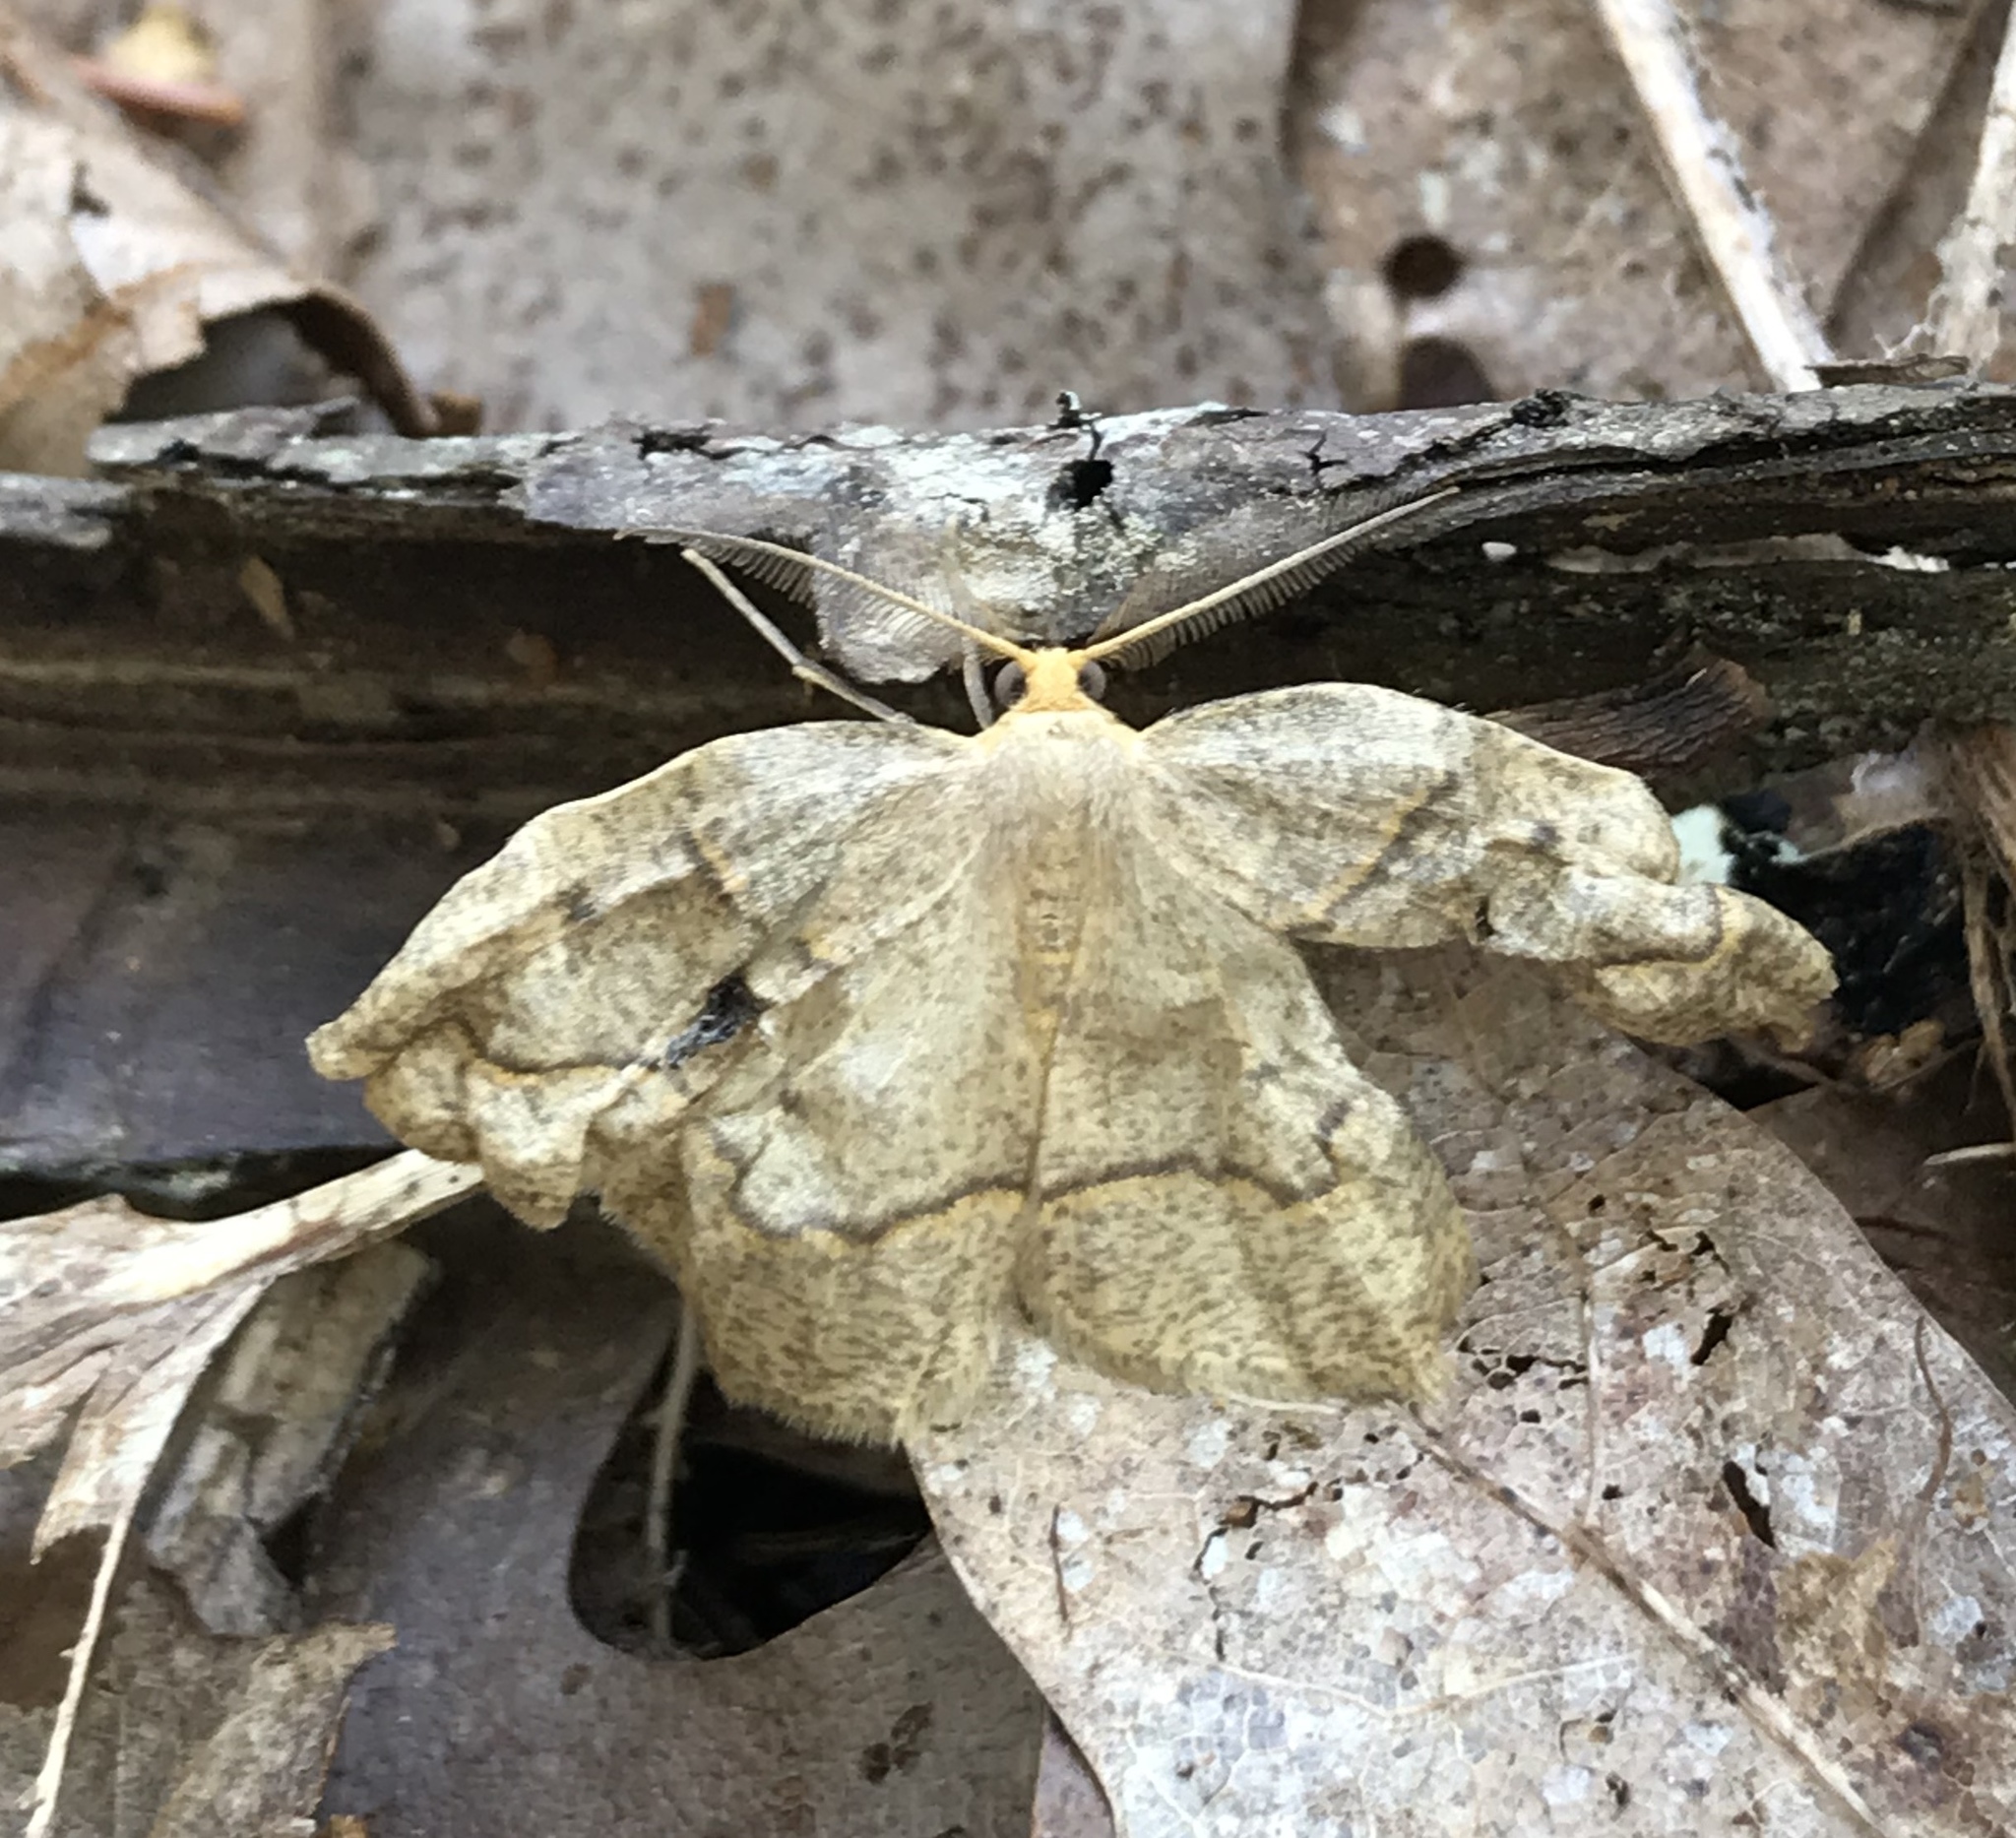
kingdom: Animalia
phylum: Arthropoda
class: Insecta
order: Lepidoptera
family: Geometridae
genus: Lambdina
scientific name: Lambdina fiscellaria
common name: Hemlock looper
